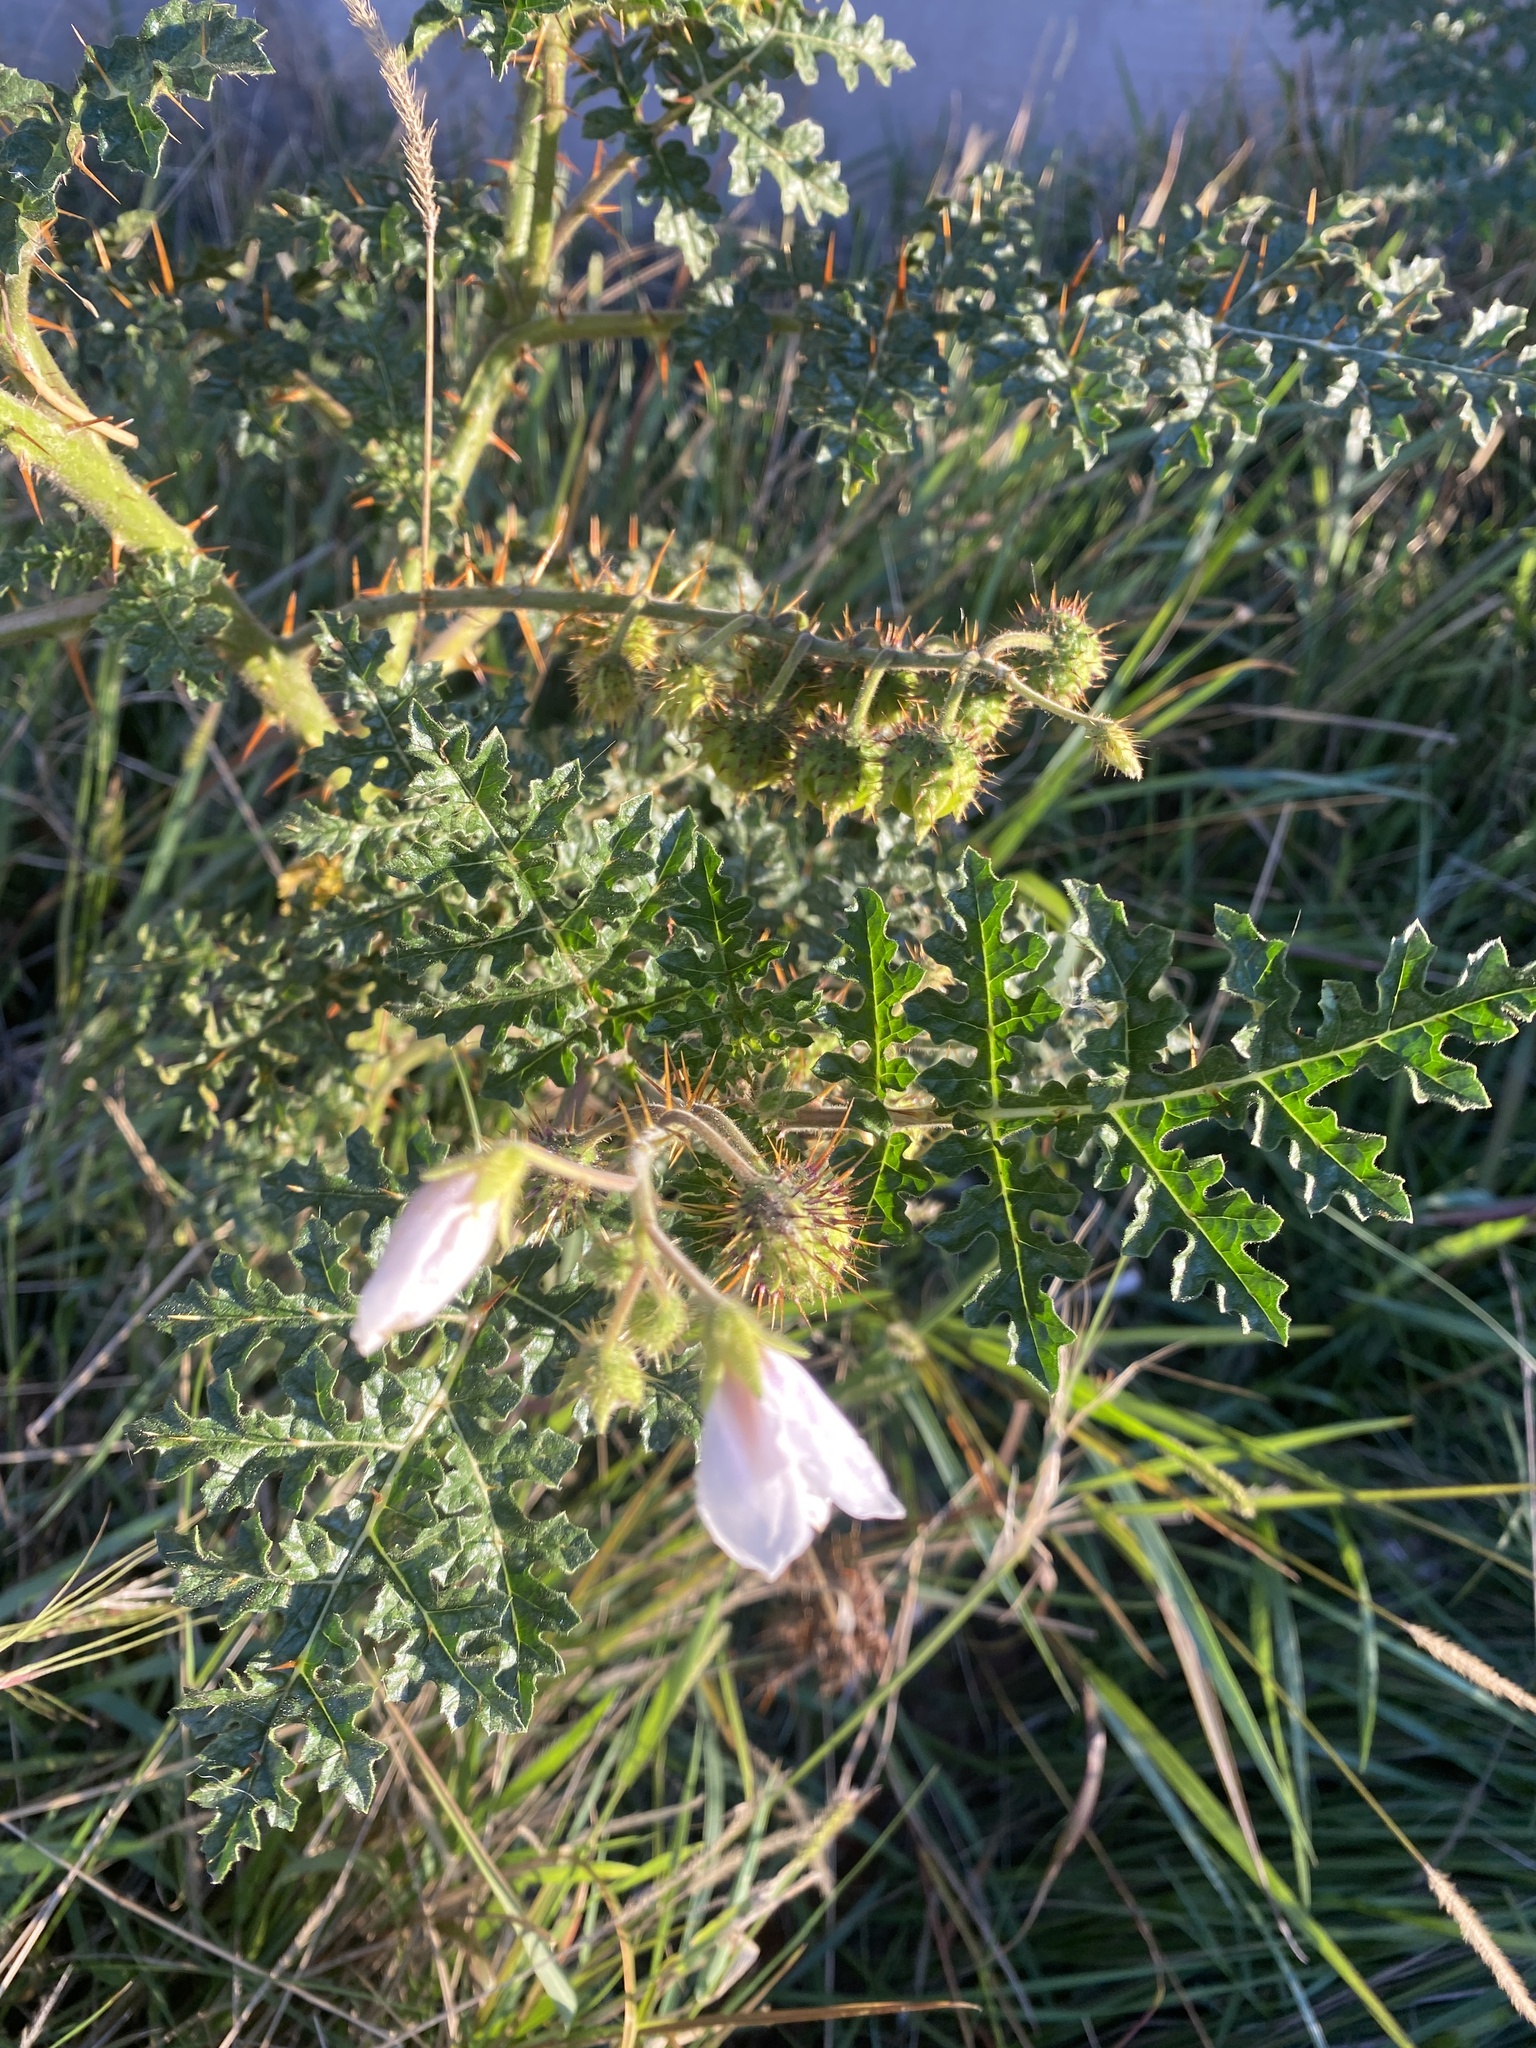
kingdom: Plantae
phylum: Tracheophyta
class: Magnoliopsida
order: Solanales
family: Solanaceae
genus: Solanum
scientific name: Solanum sisymbriifolium
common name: Red buffalo-bur
